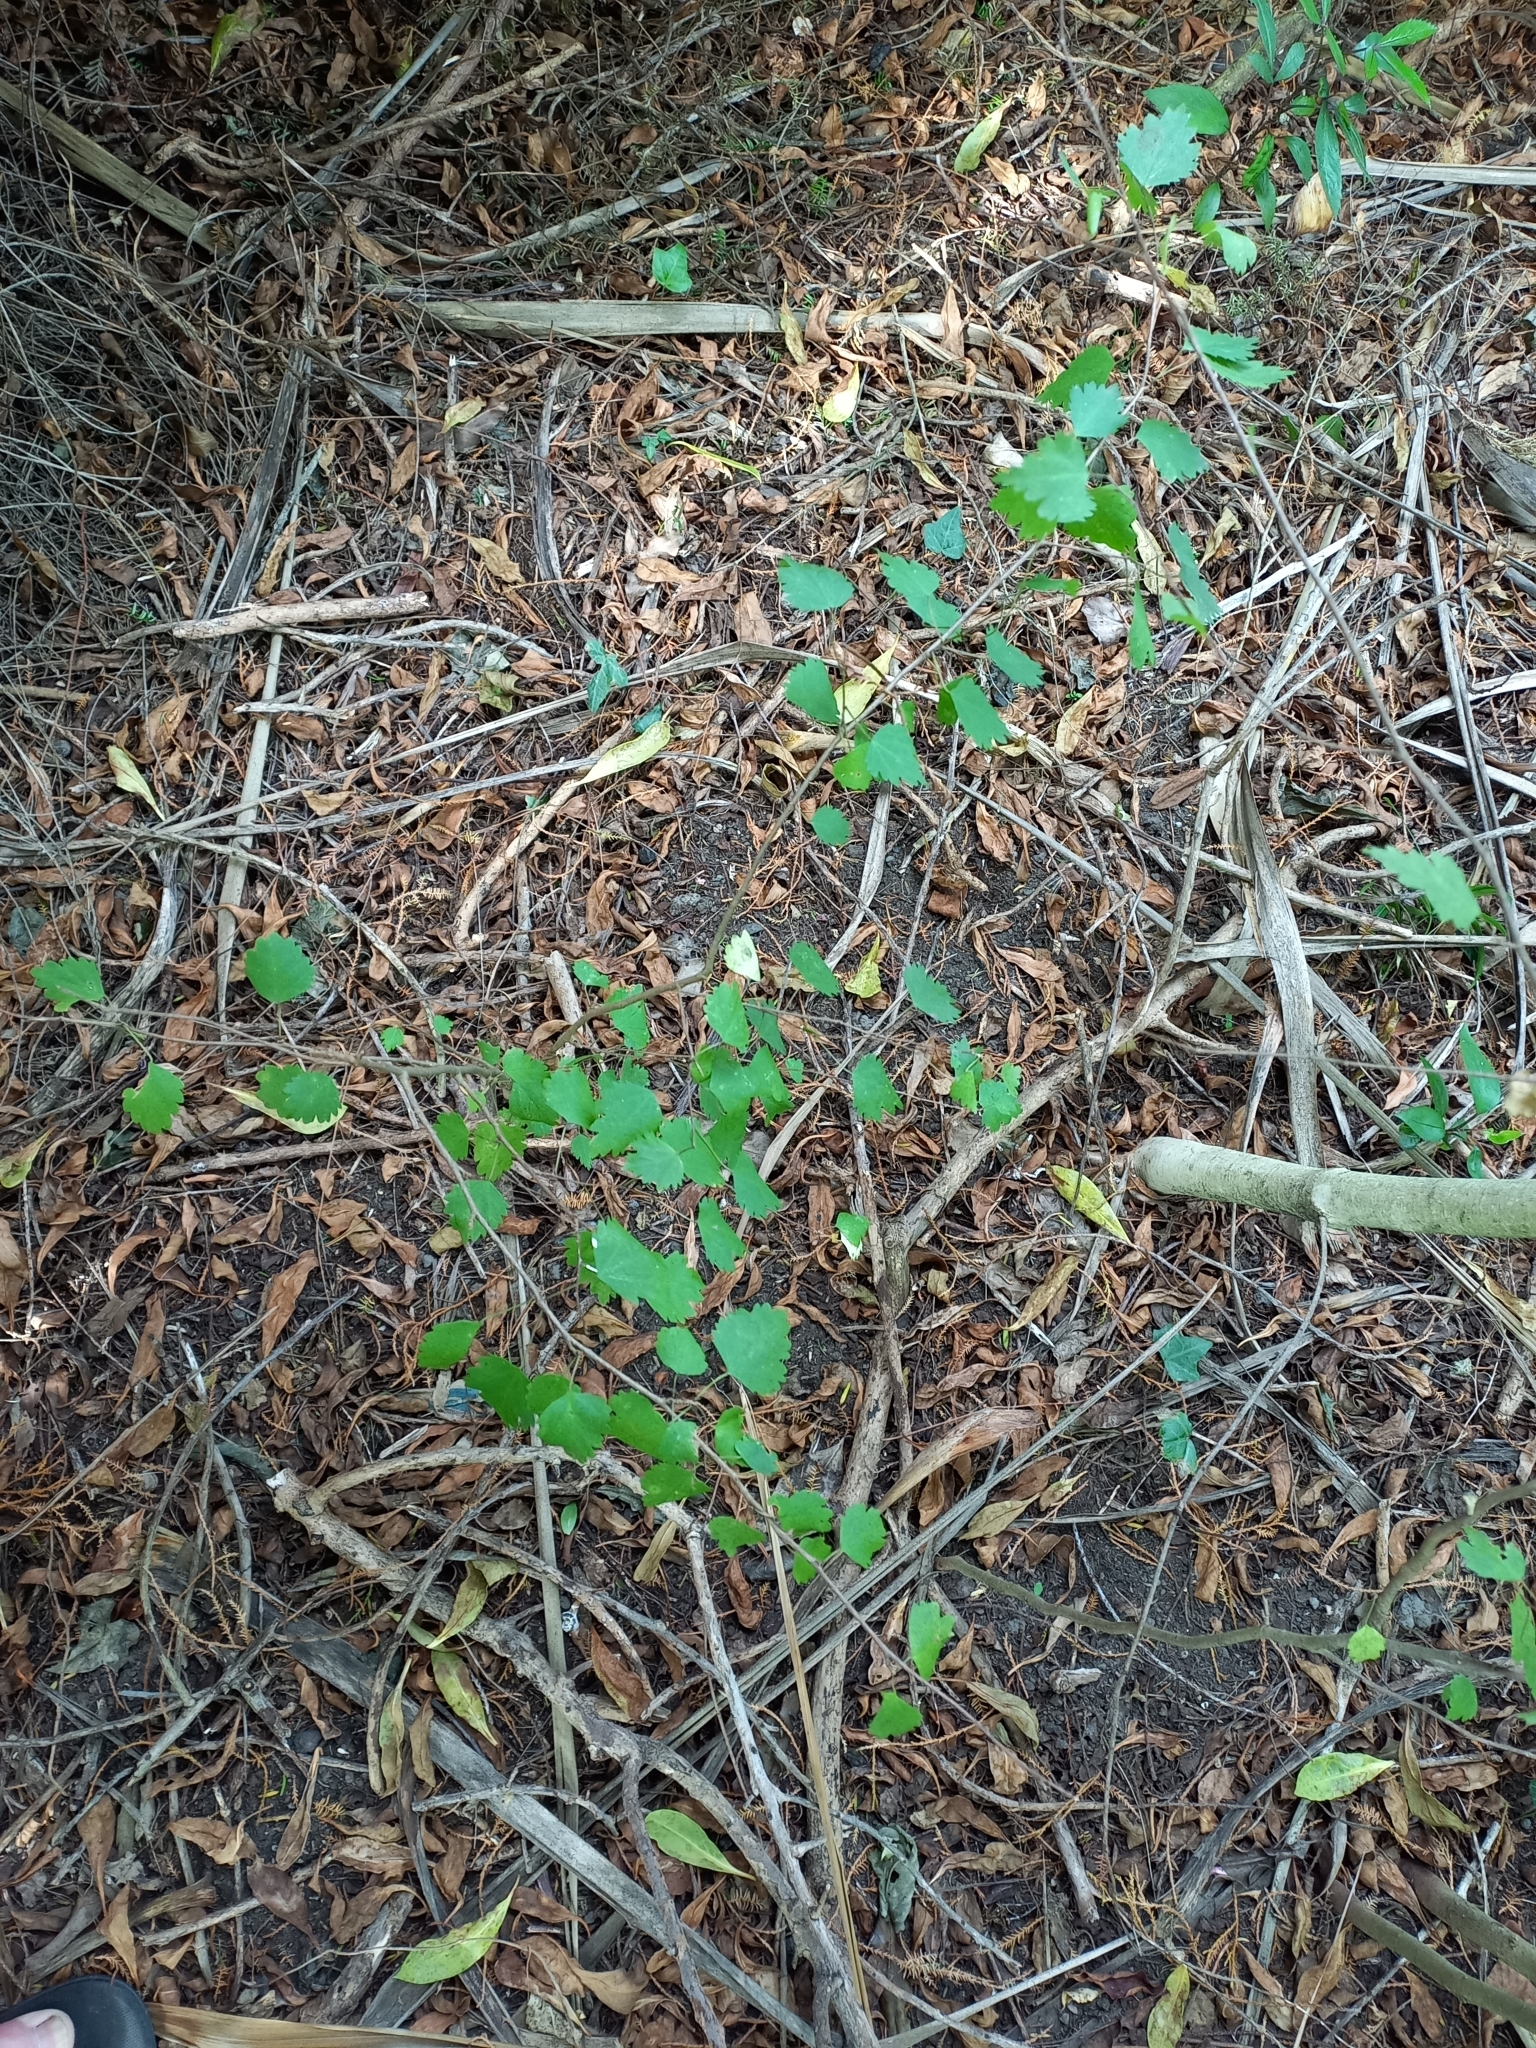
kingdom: Plantae
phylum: Tracheophyta
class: Magnoliopsida
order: Malvales
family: Malvaceae
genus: Plagianthus
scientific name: Plagianthus regius
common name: Manatu
